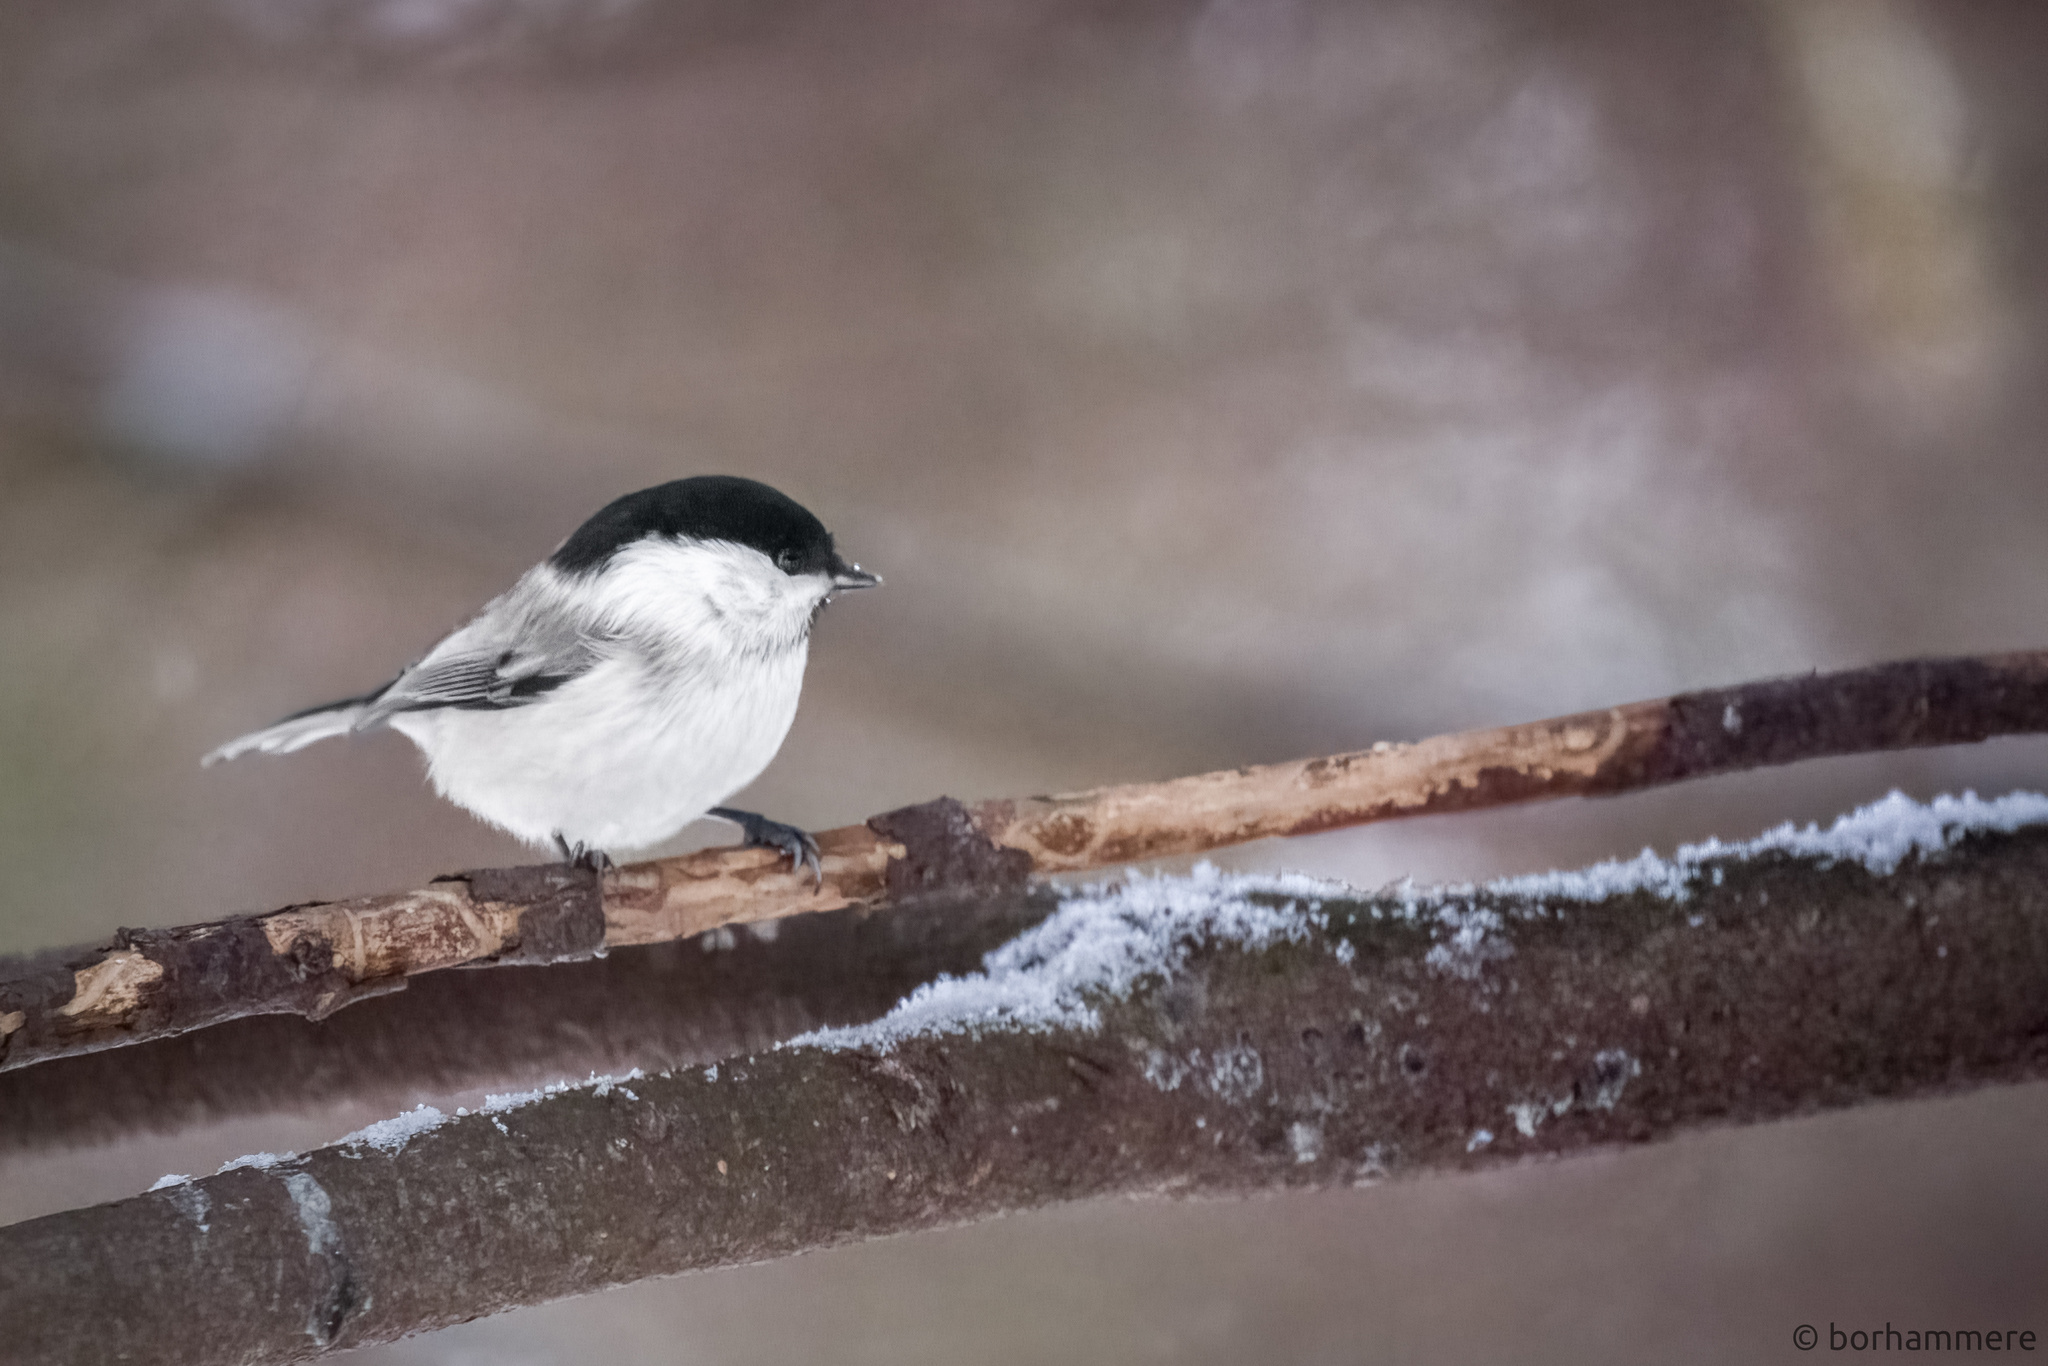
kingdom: Animalia
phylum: Chordata
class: Aves
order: Passeriformes
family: Paridae
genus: Poecile
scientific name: Poecile montanus
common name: Willow tit
